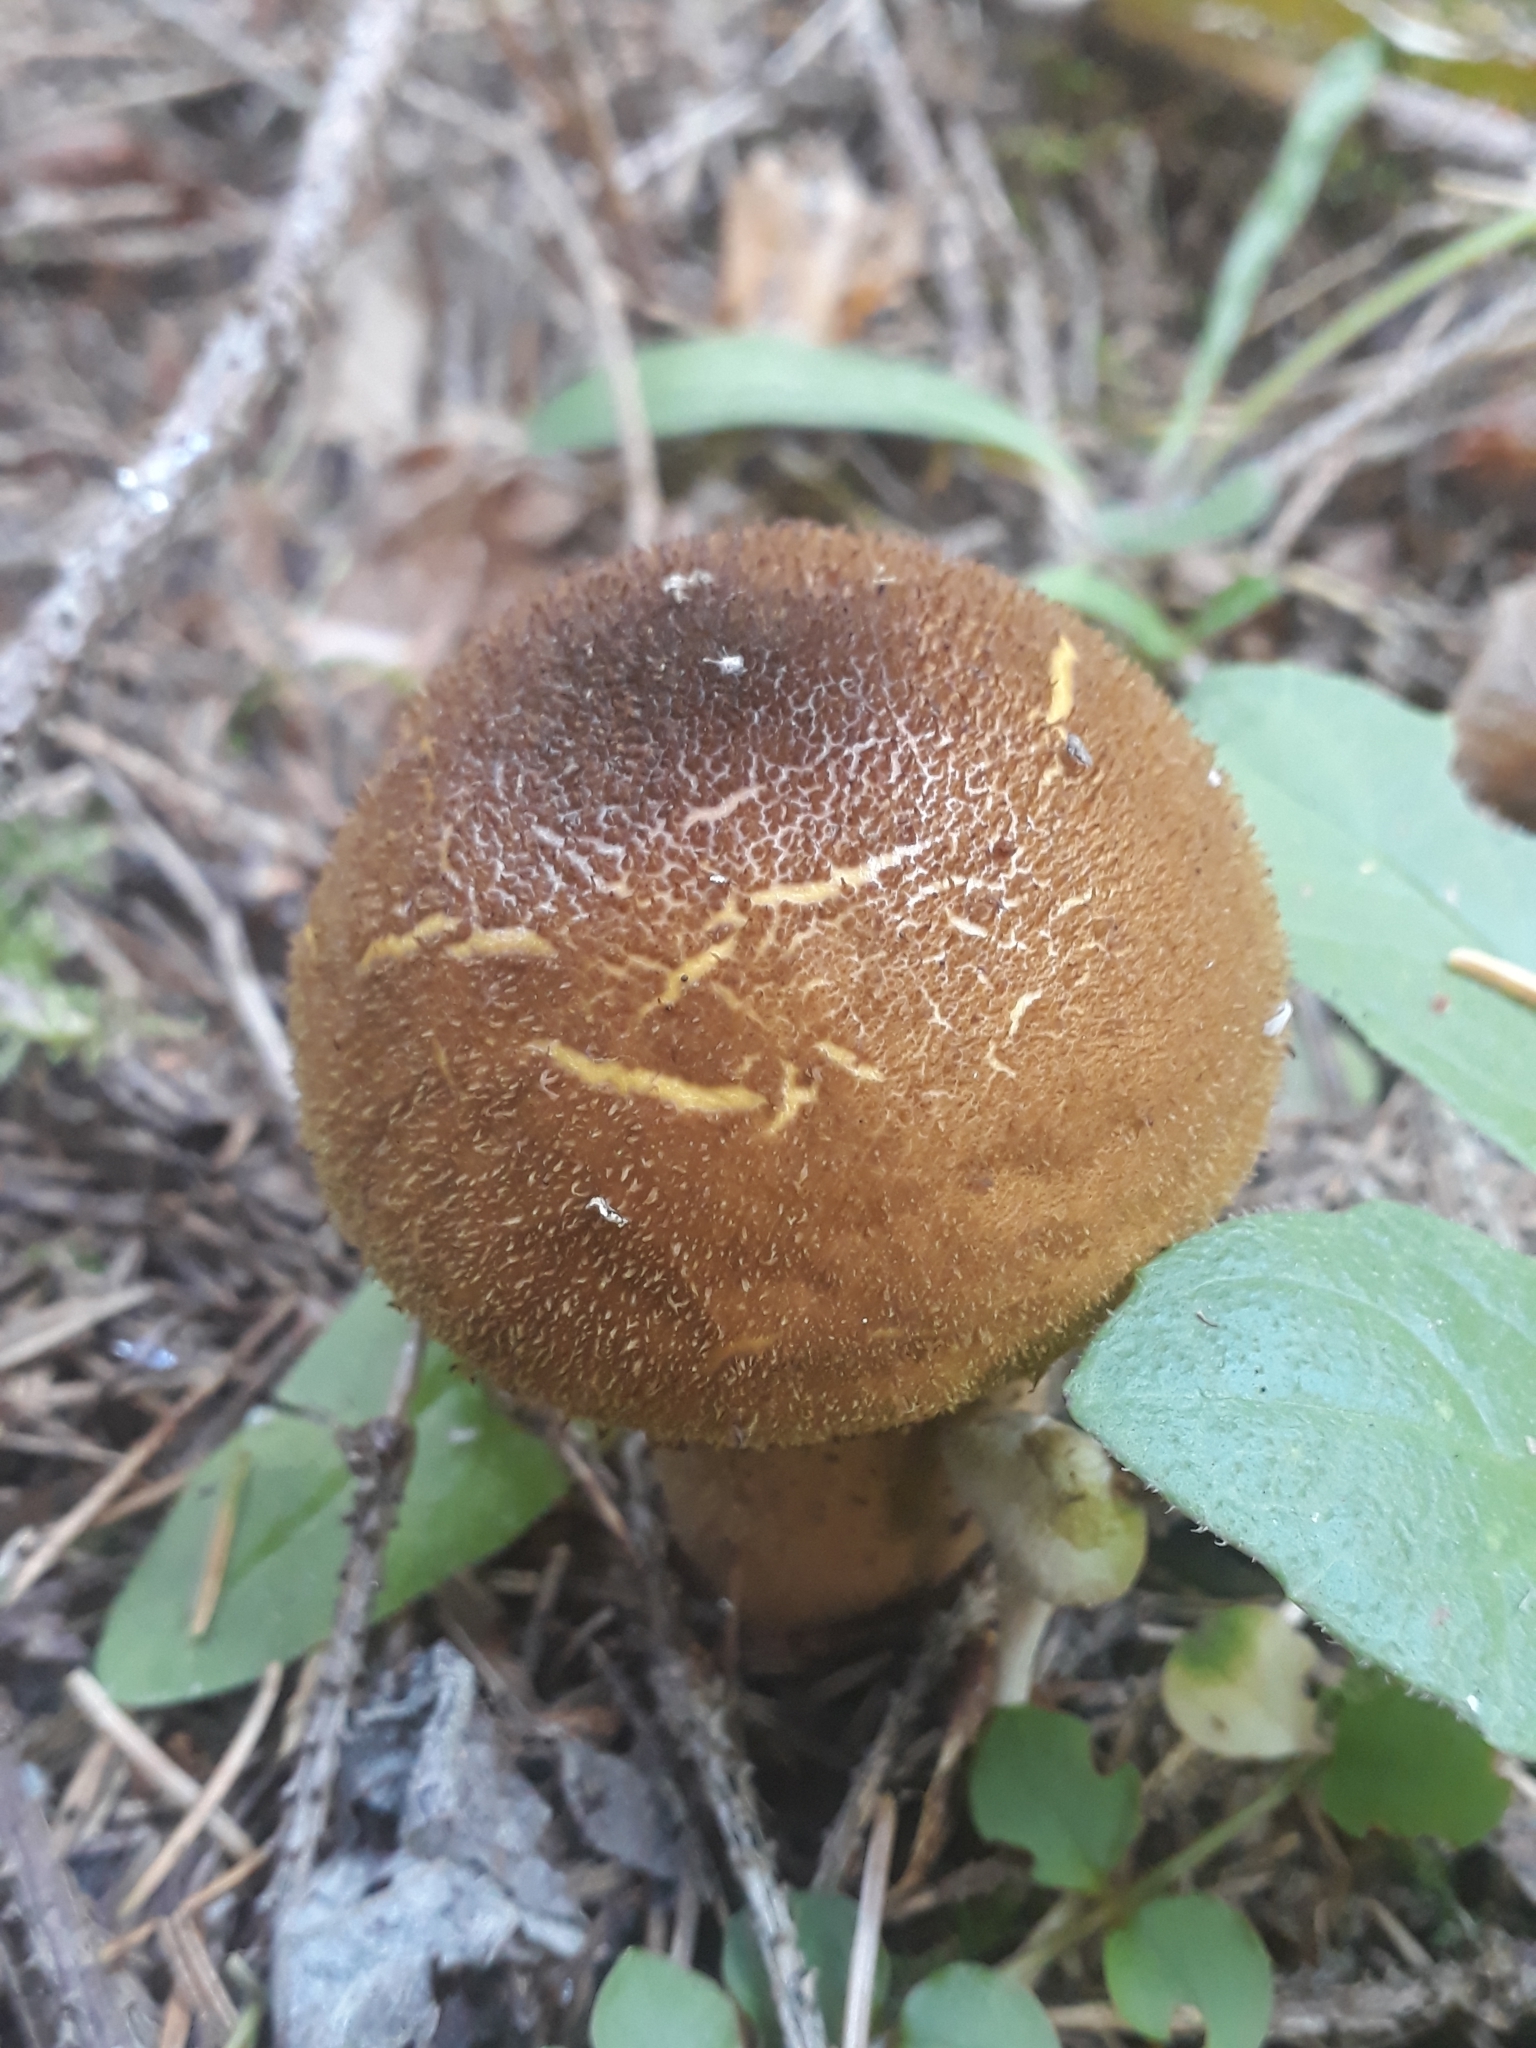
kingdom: Fungi
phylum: Basidiomycota
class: Agaricomycetes
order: Agaricales
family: Lycoperdaceae
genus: Lycoperdon
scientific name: Lycoperdon umbrinum
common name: Umber-brown puffball
